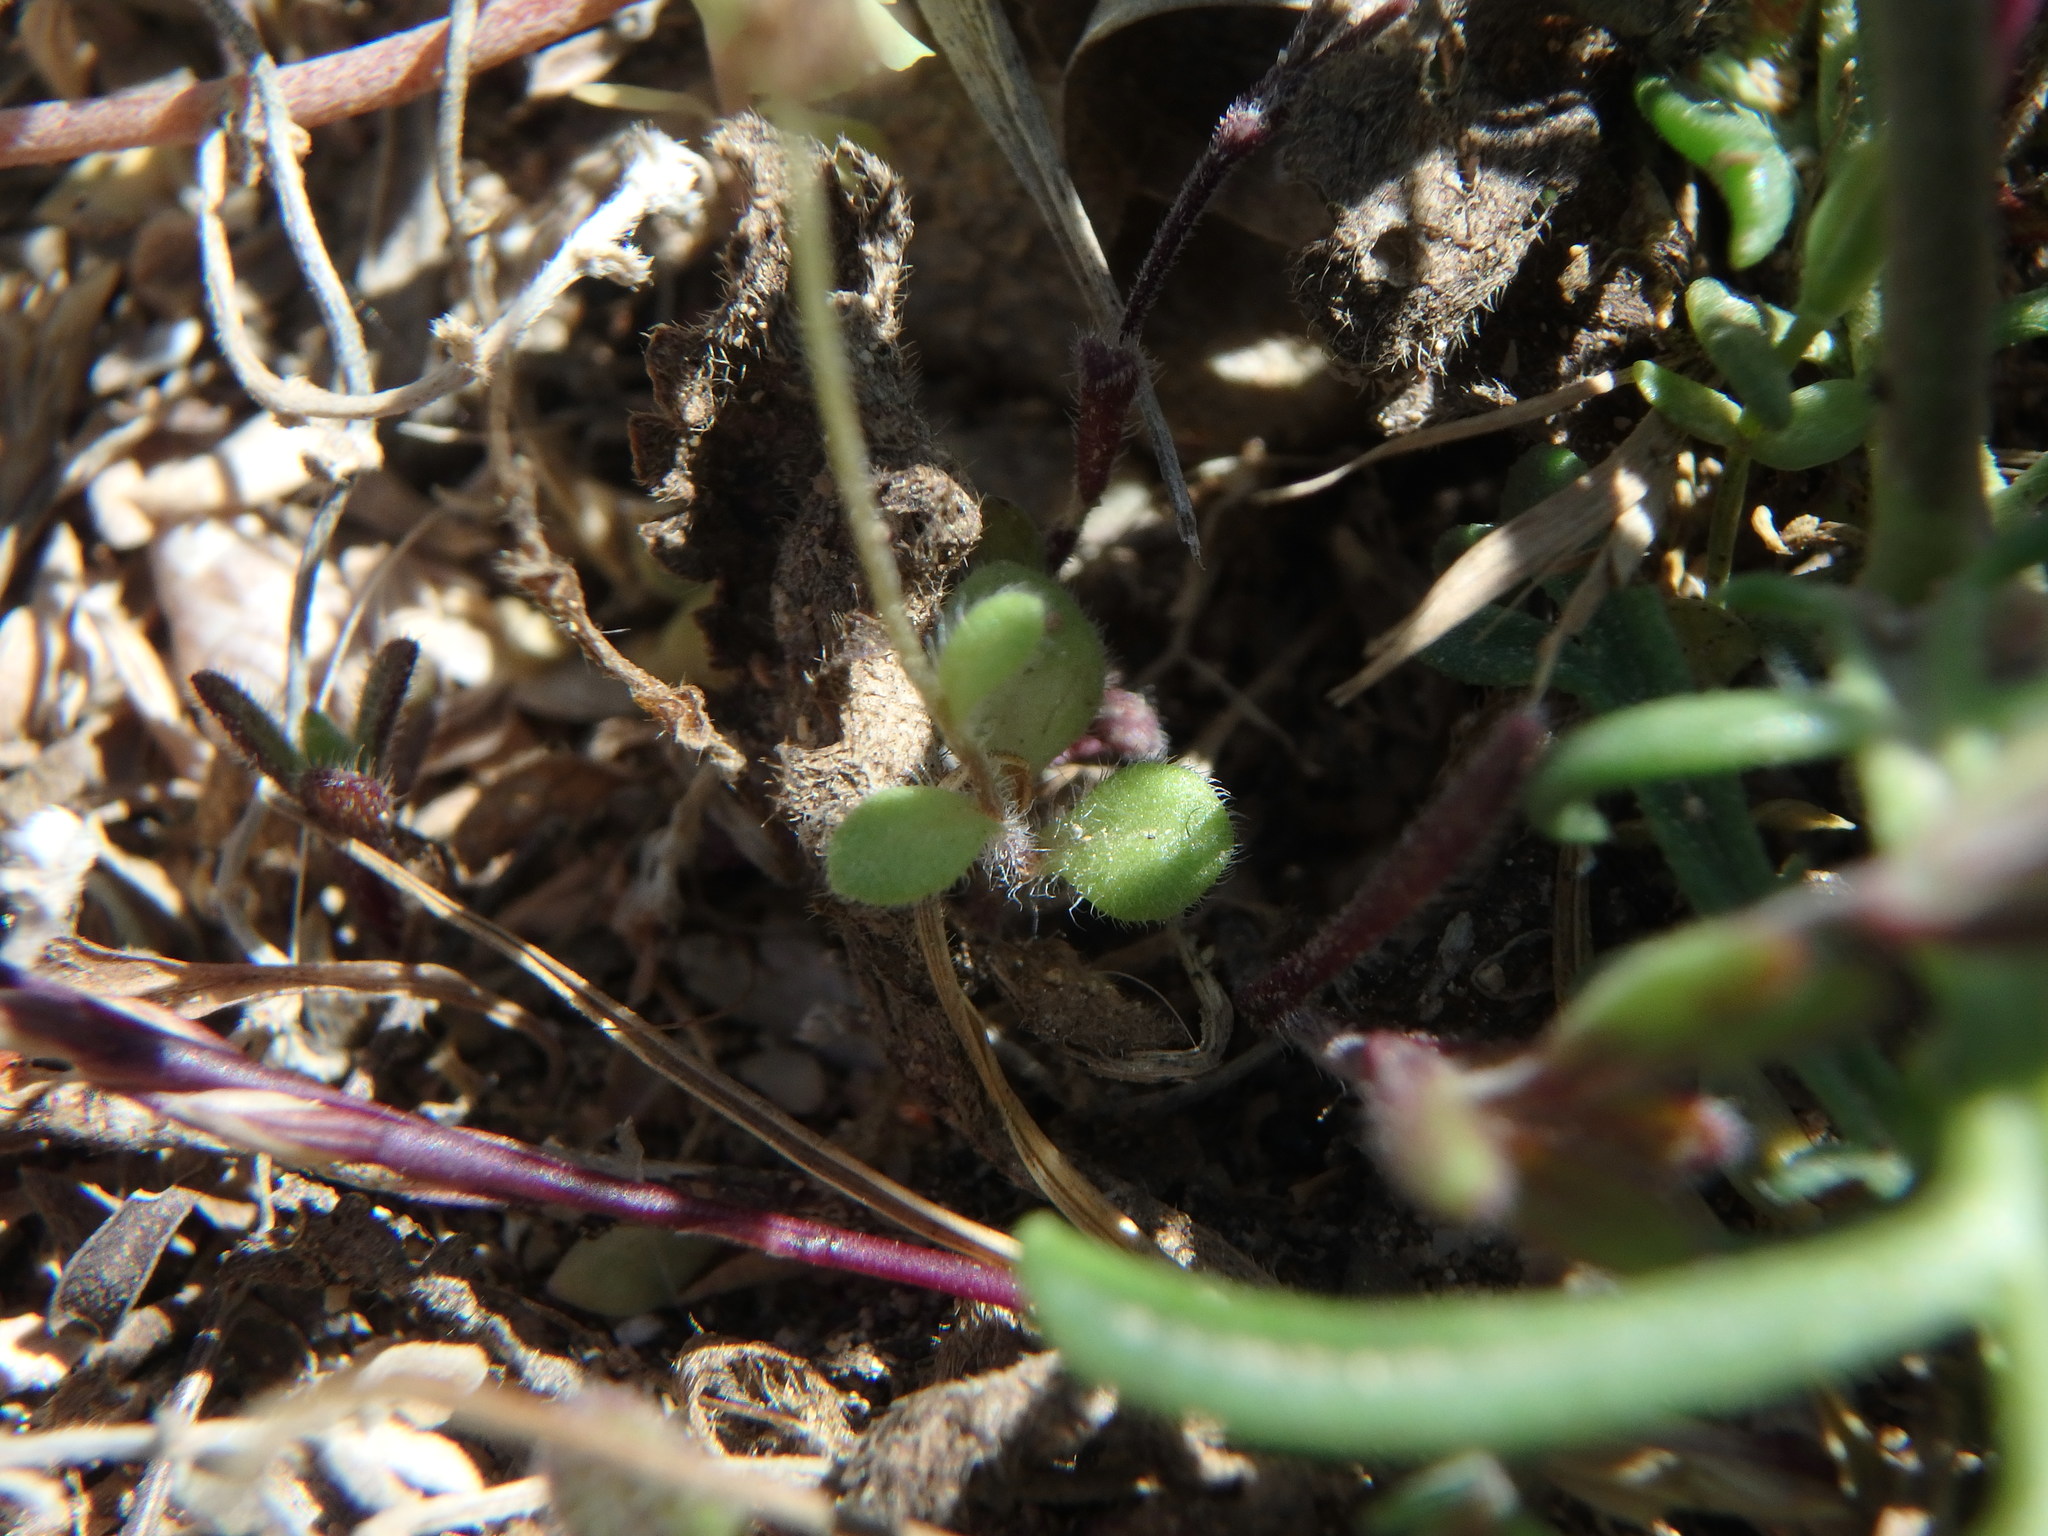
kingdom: Plantae
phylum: Tracheophyta
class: Magnoliopsida
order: Asterales
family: Asteraceae
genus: Bellis
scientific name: Bellis annua
